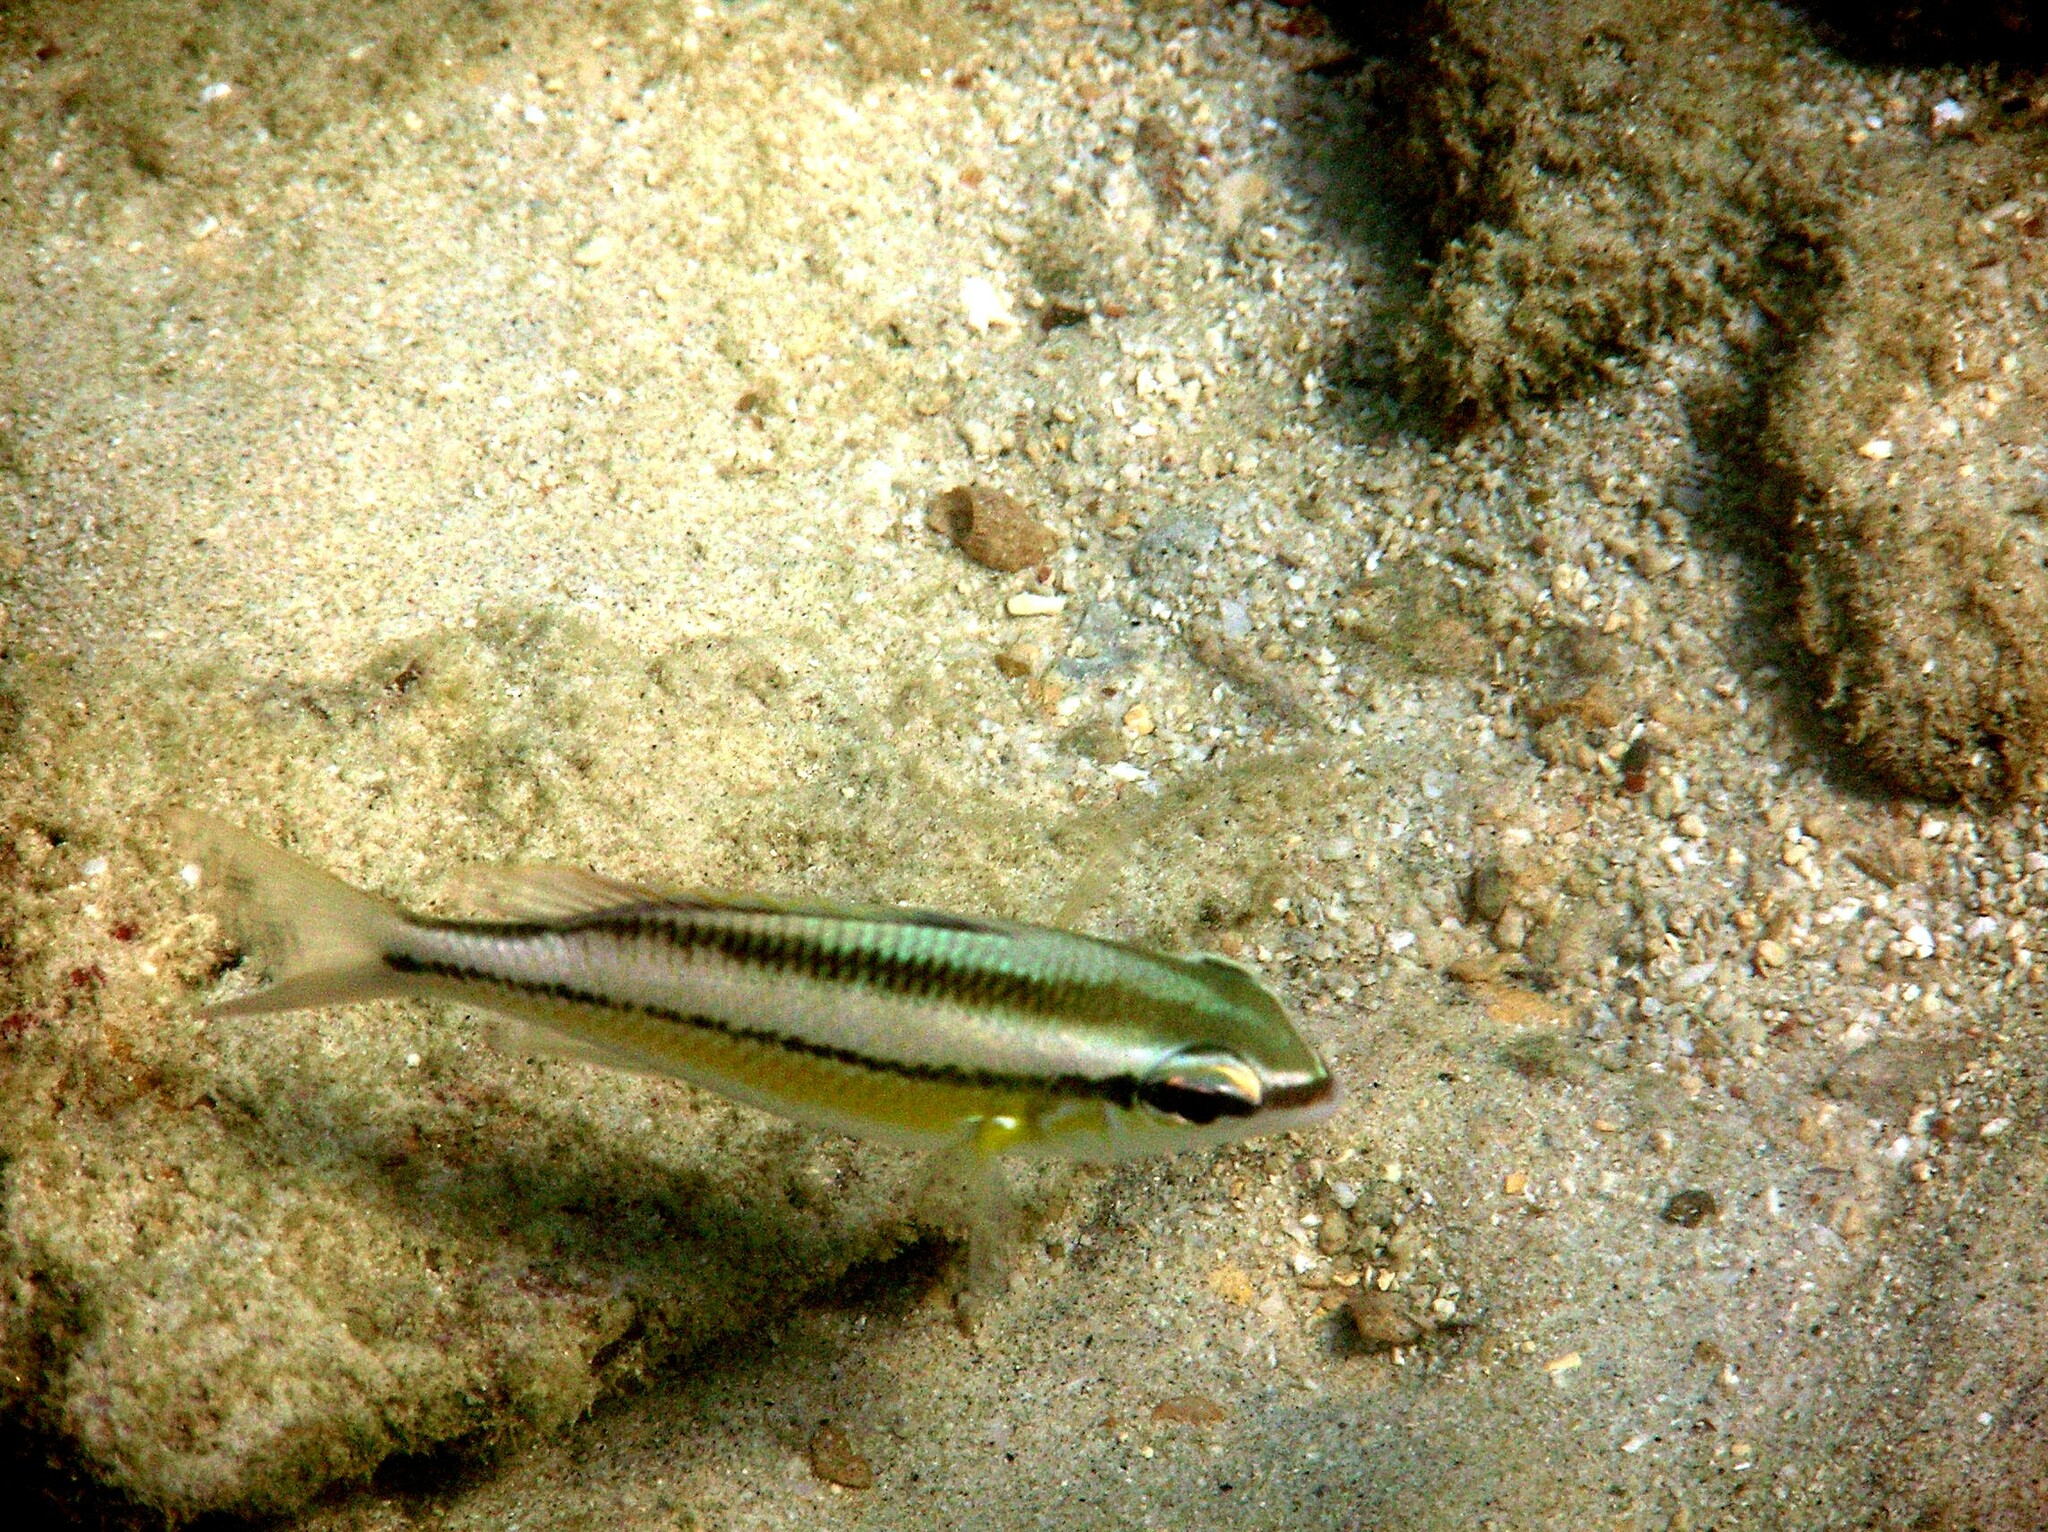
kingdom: Animalia
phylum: Chordata
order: Perciformes
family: Nemipteridae
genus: Scolopsis
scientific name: Scolopsis margaritifera
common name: Pearly monocle bream
